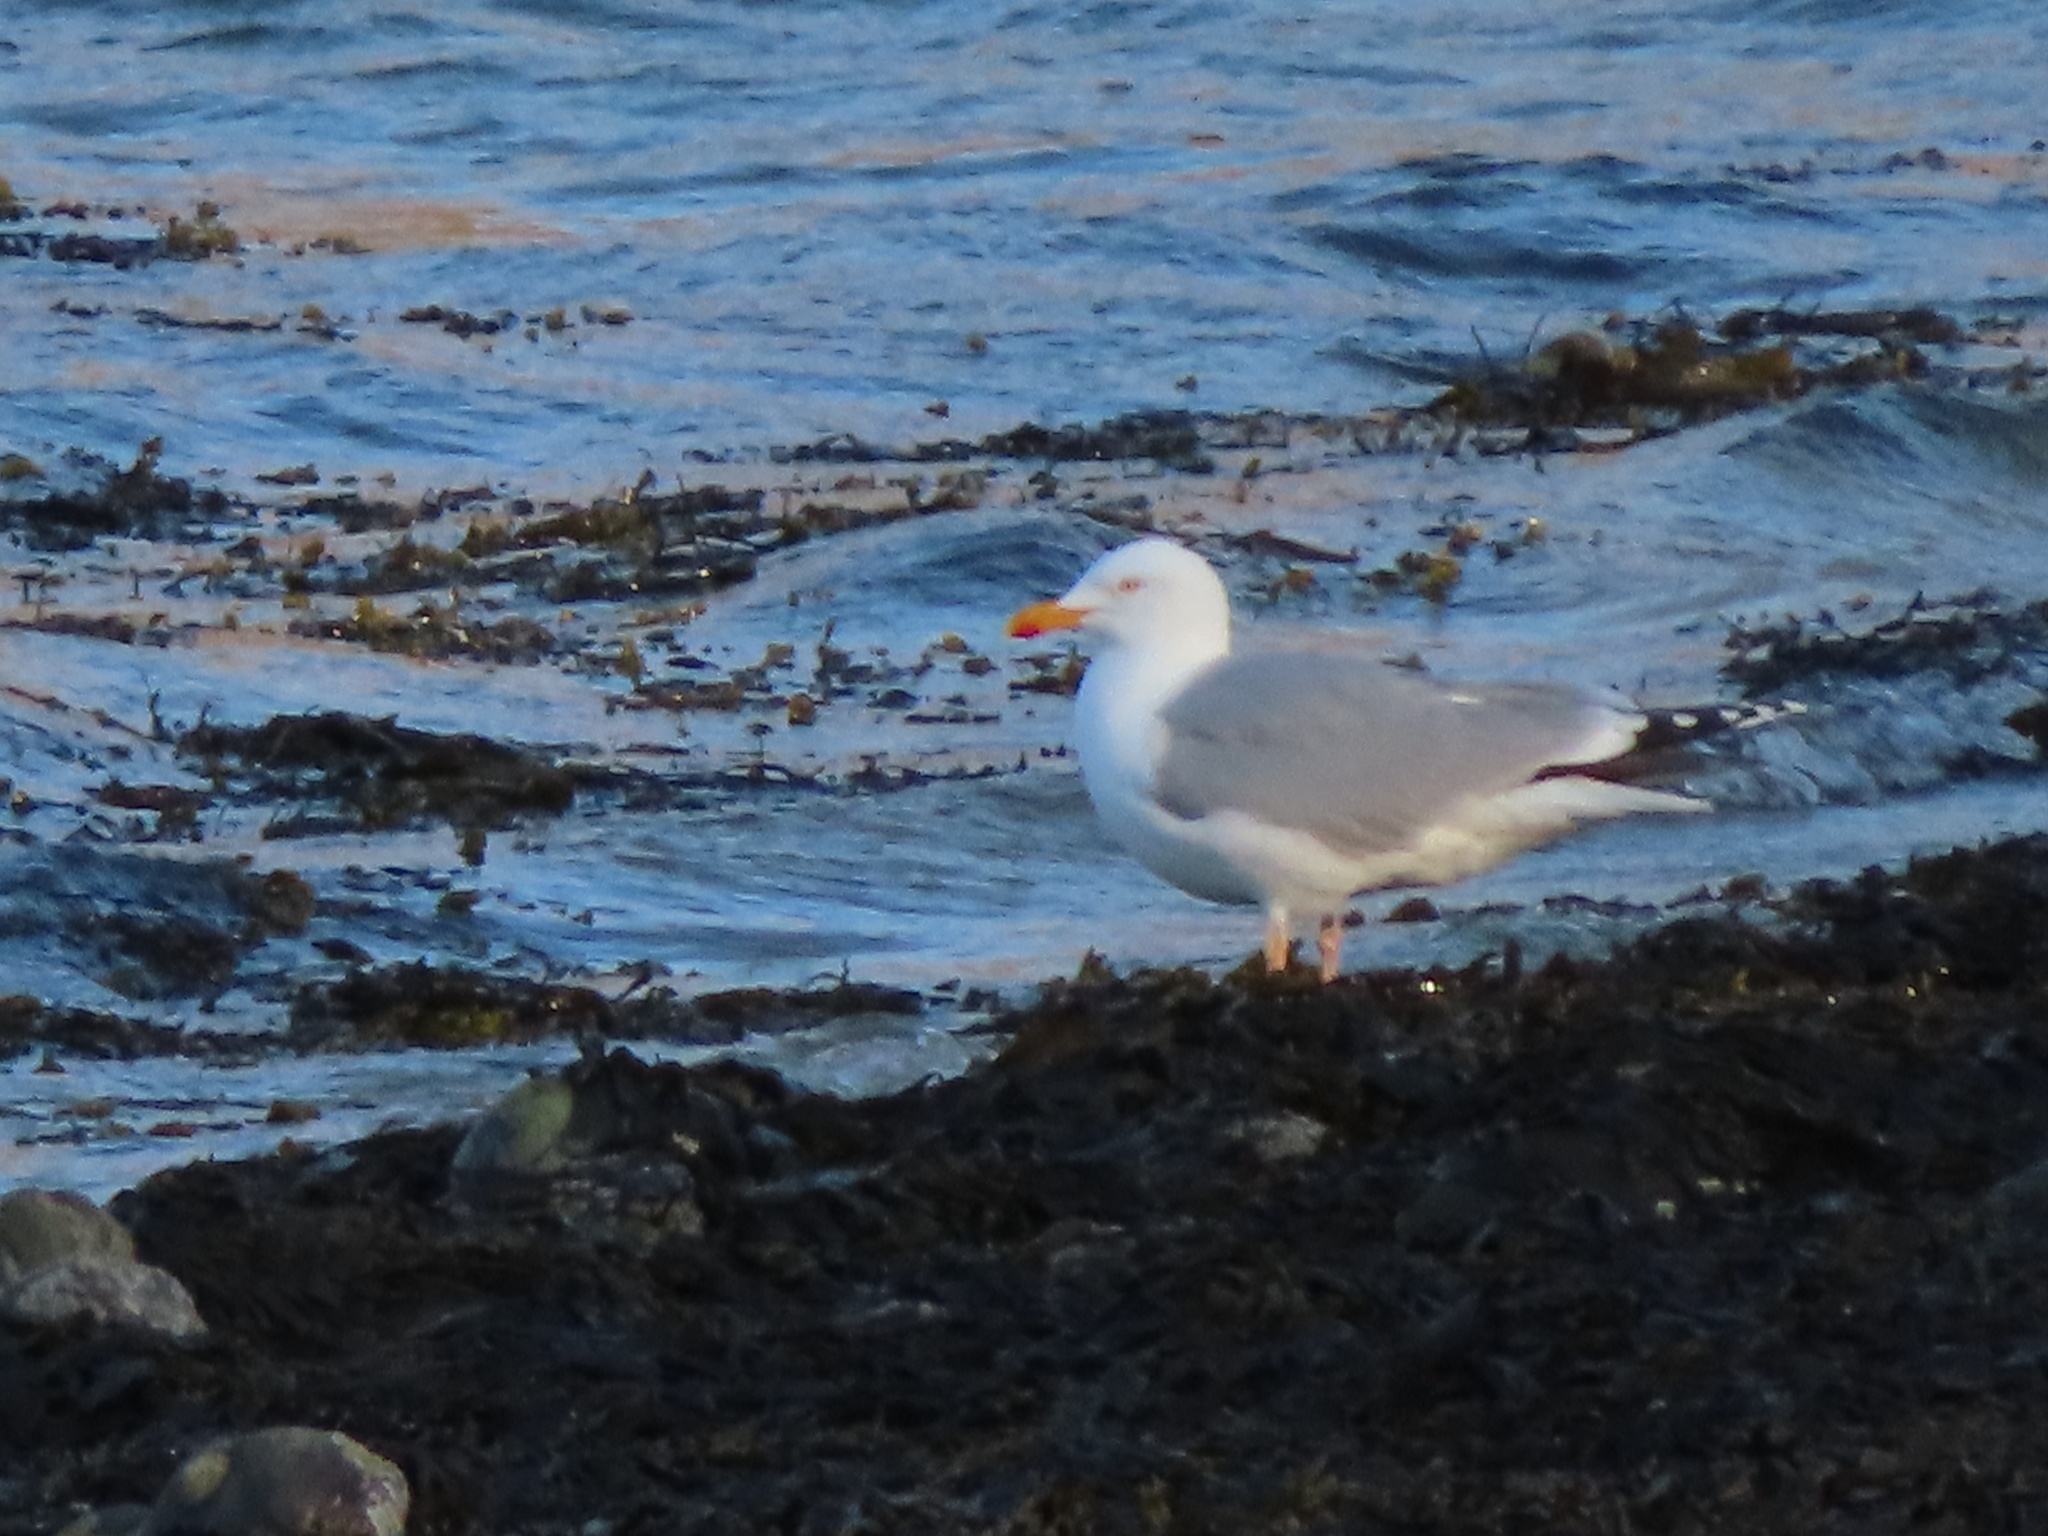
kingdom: Animalia
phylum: Chordata
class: Aves
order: Charadriiformes
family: Laridae
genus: Larus
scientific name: Larus argentatus
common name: Herring gull
